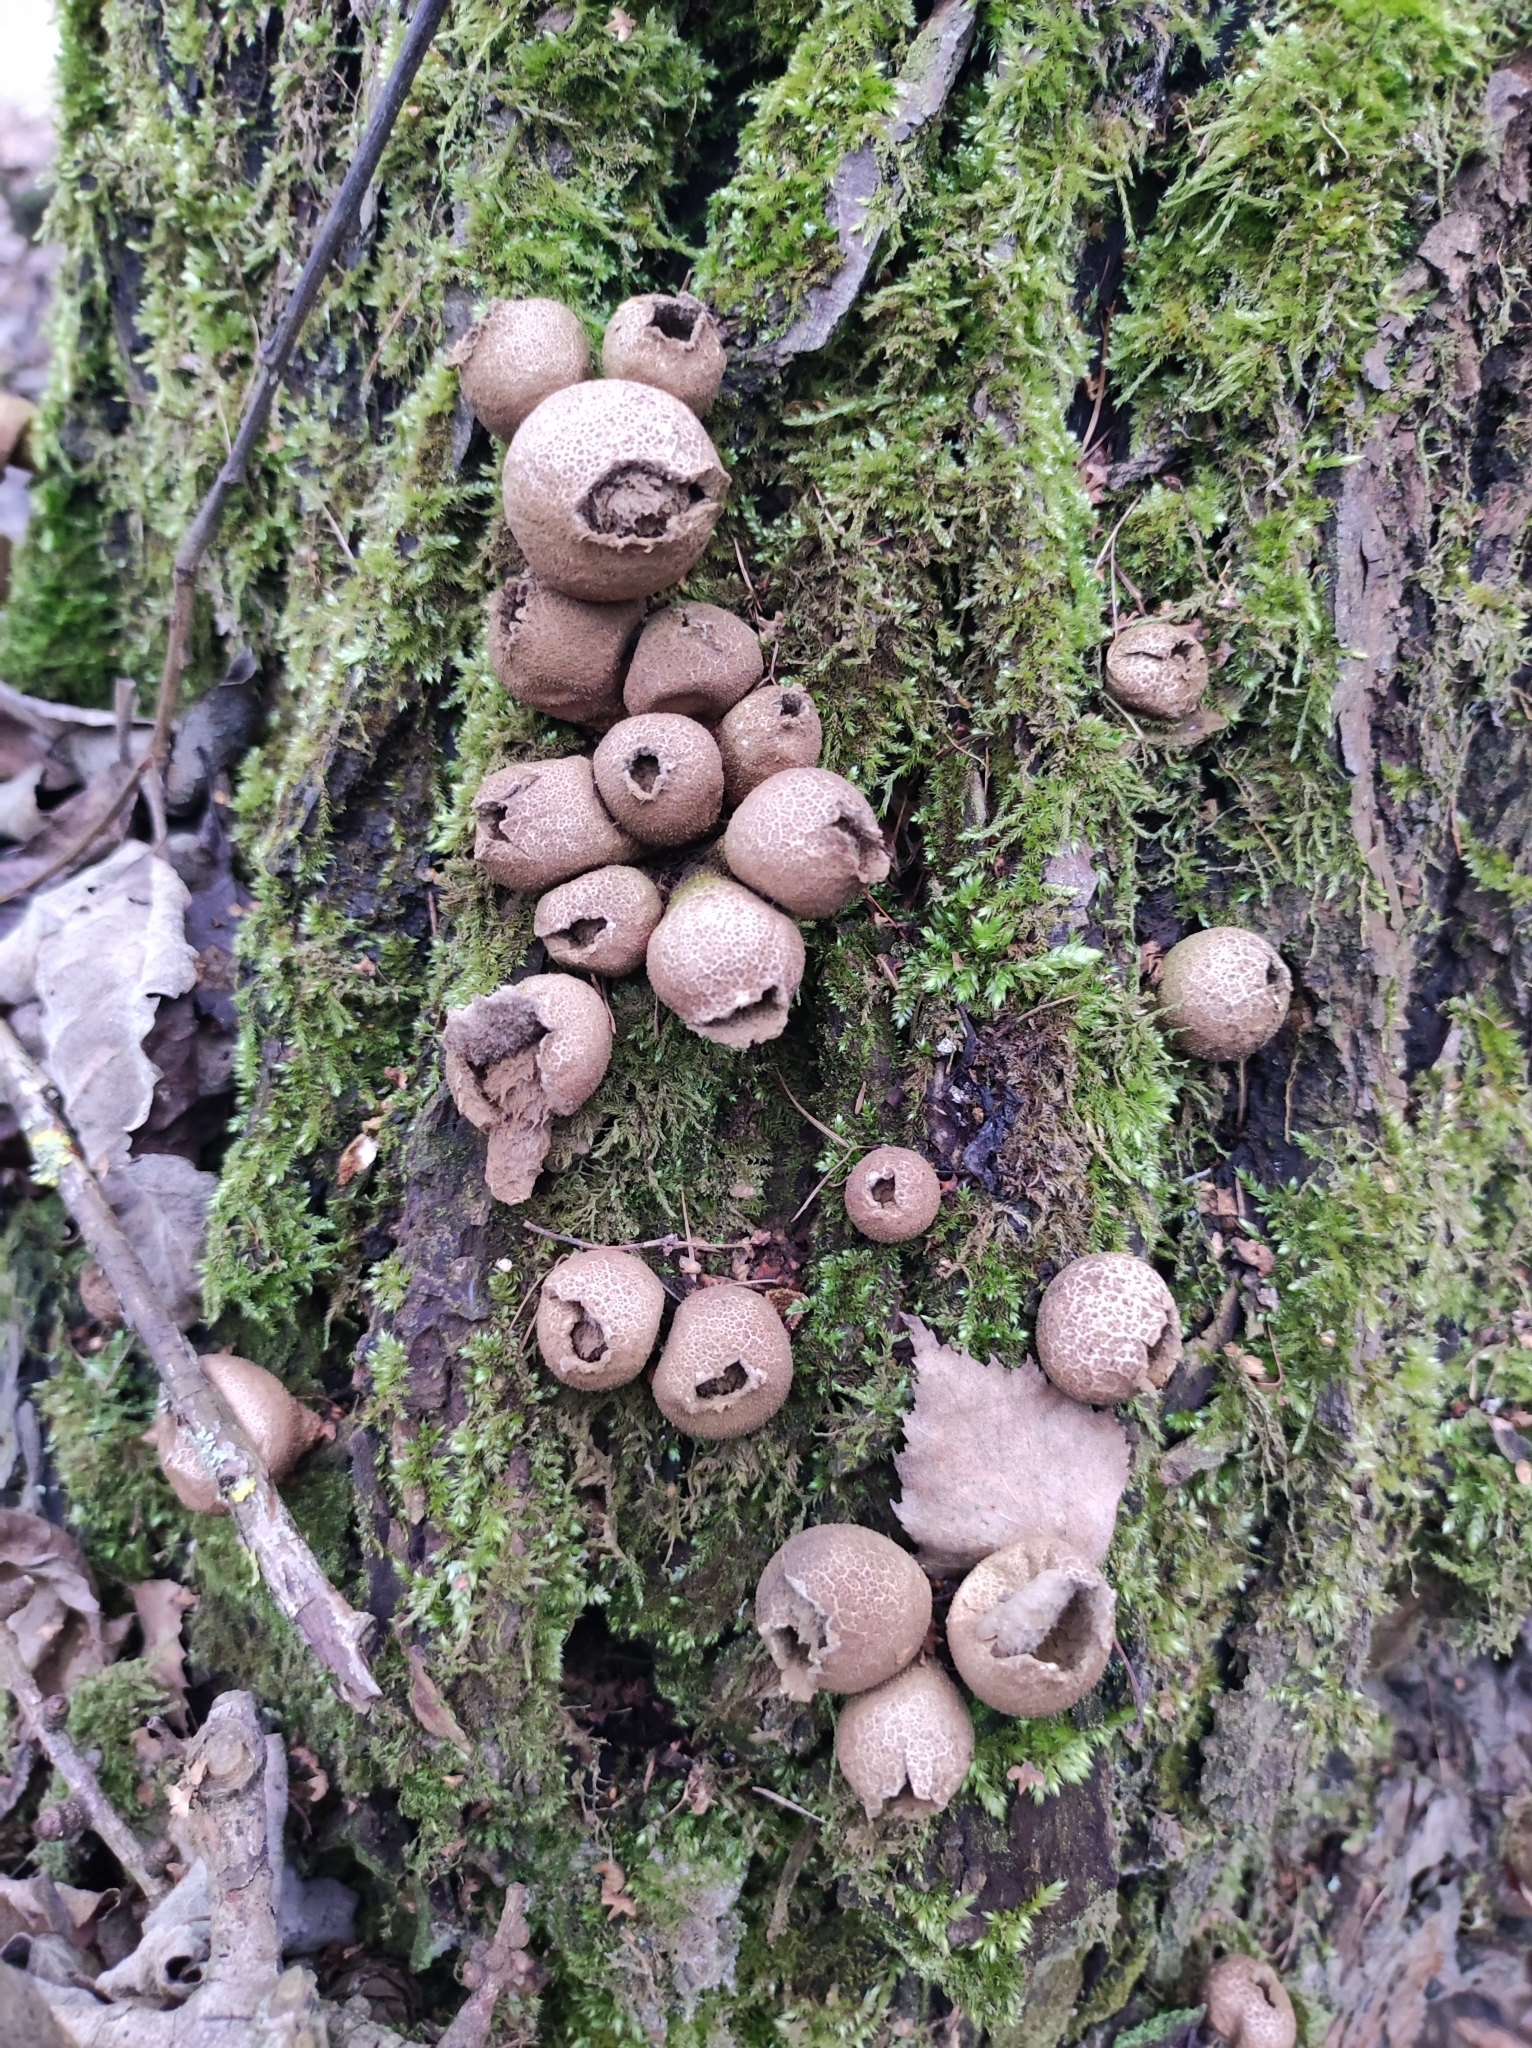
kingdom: Fungi
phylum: Basidiomycota
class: Agaricomycetes
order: Agaricales
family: Lycoperdaceae
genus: Apioperdon
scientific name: Apioperdon pyriforme
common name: Pear-shaped puffball
